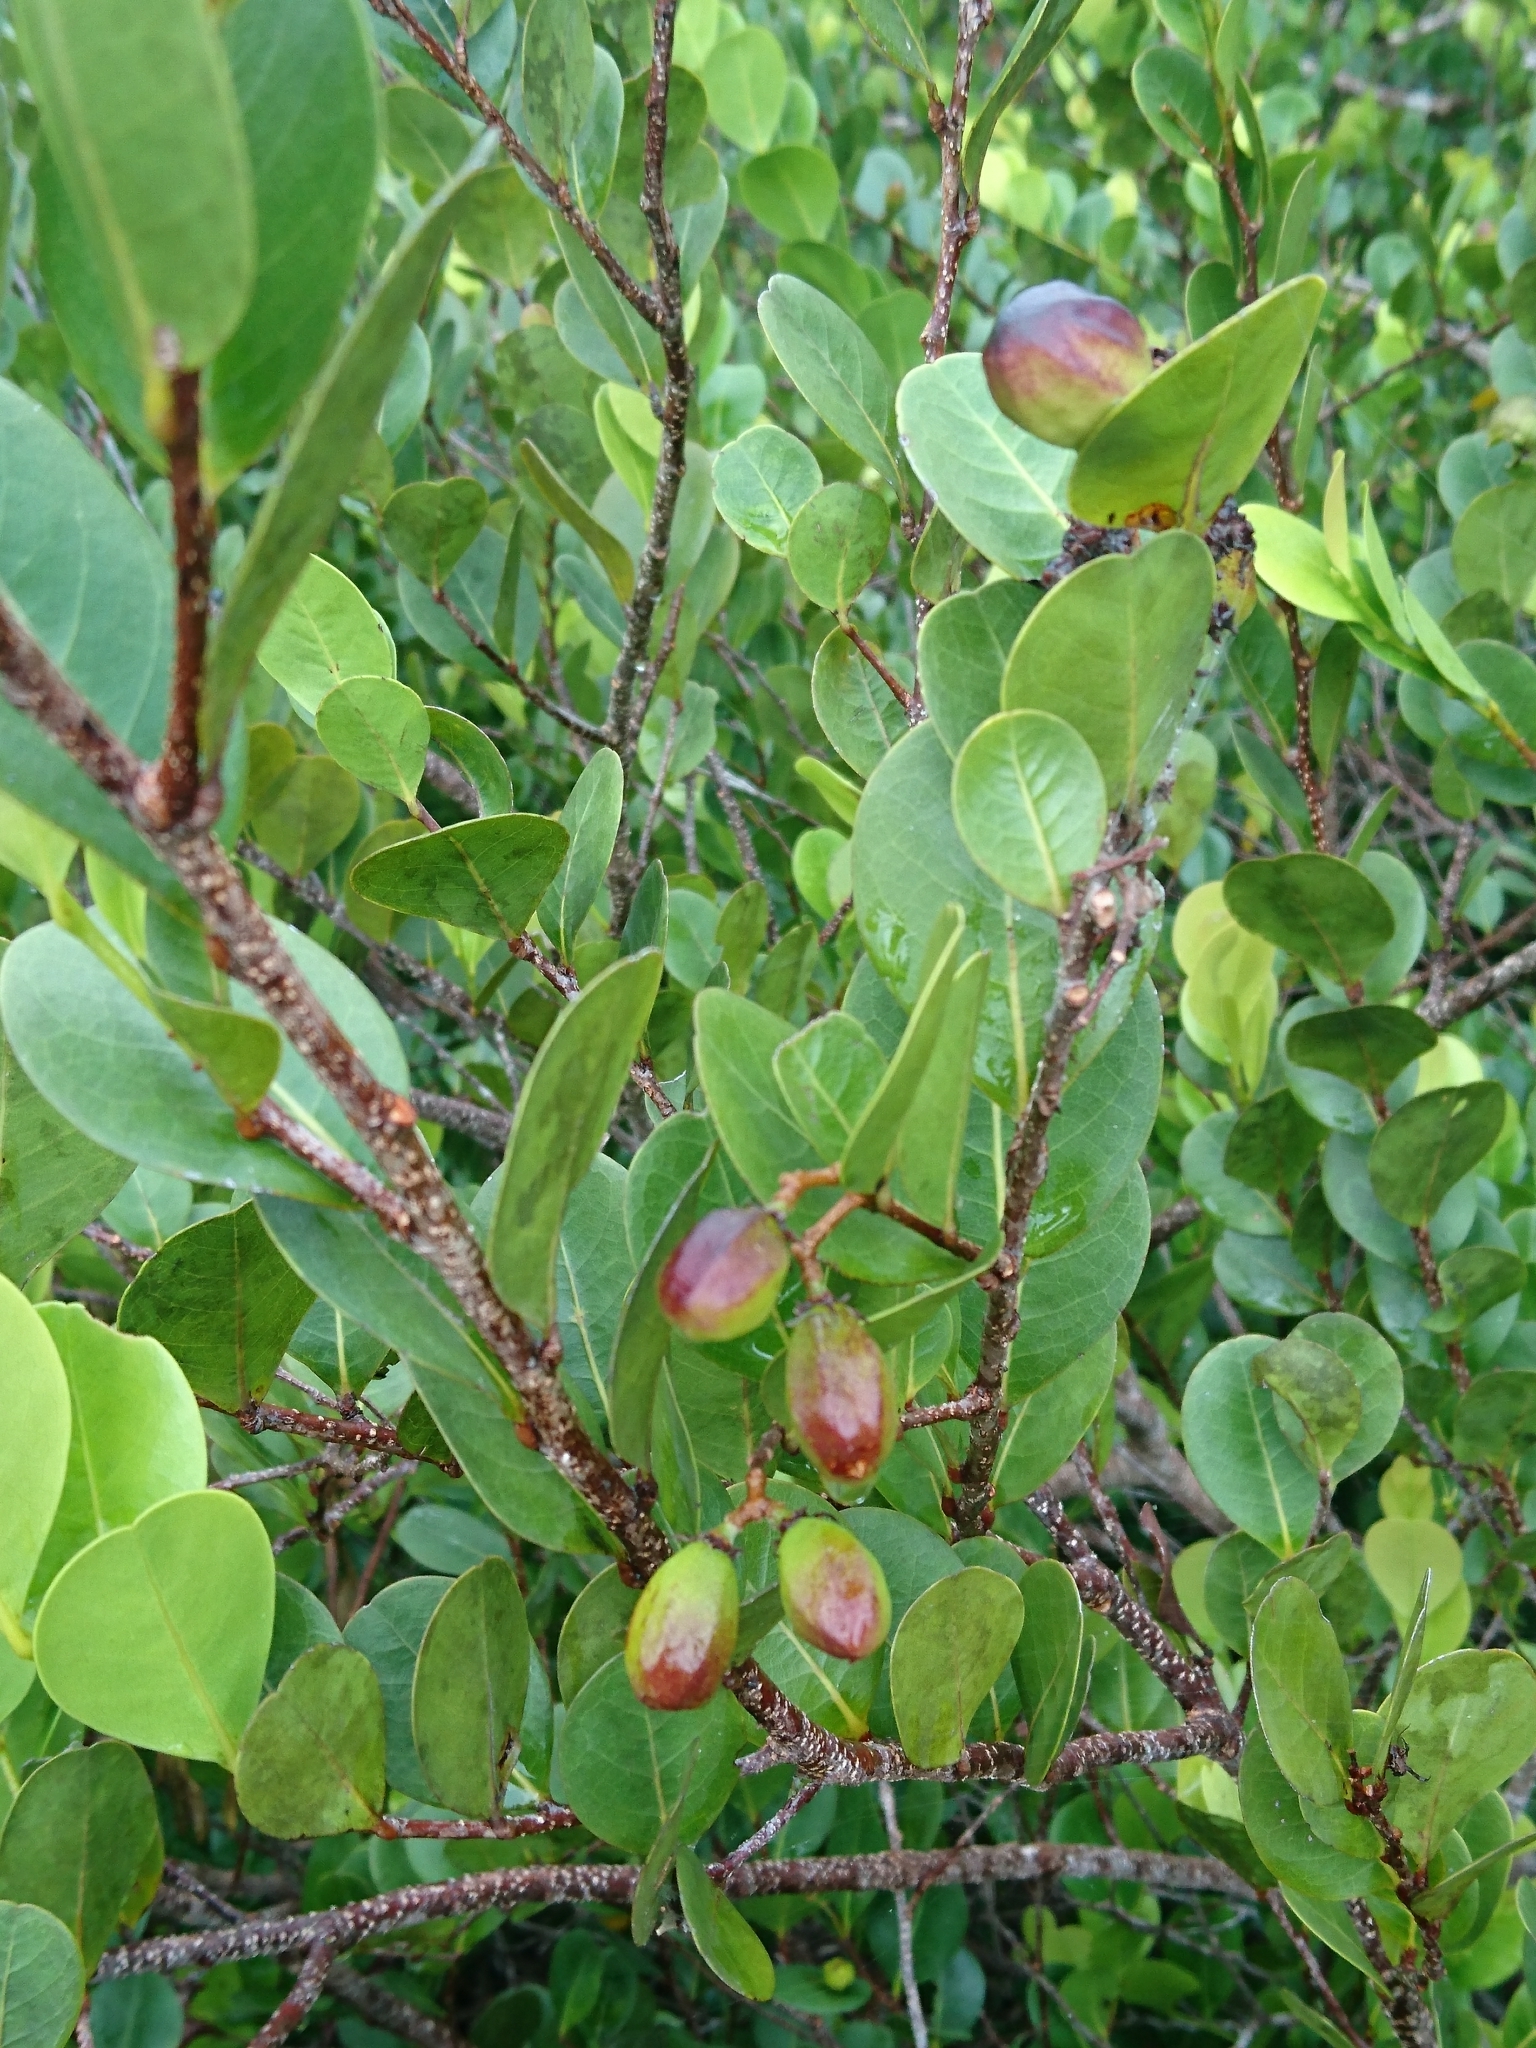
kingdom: Plantae
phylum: Tracheophyta
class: Magnoliopsida
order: Malpighiales
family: Chrysobalanaceae
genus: Chrysobalanus
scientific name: Chrysobalanus icaco
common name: Coco plum
